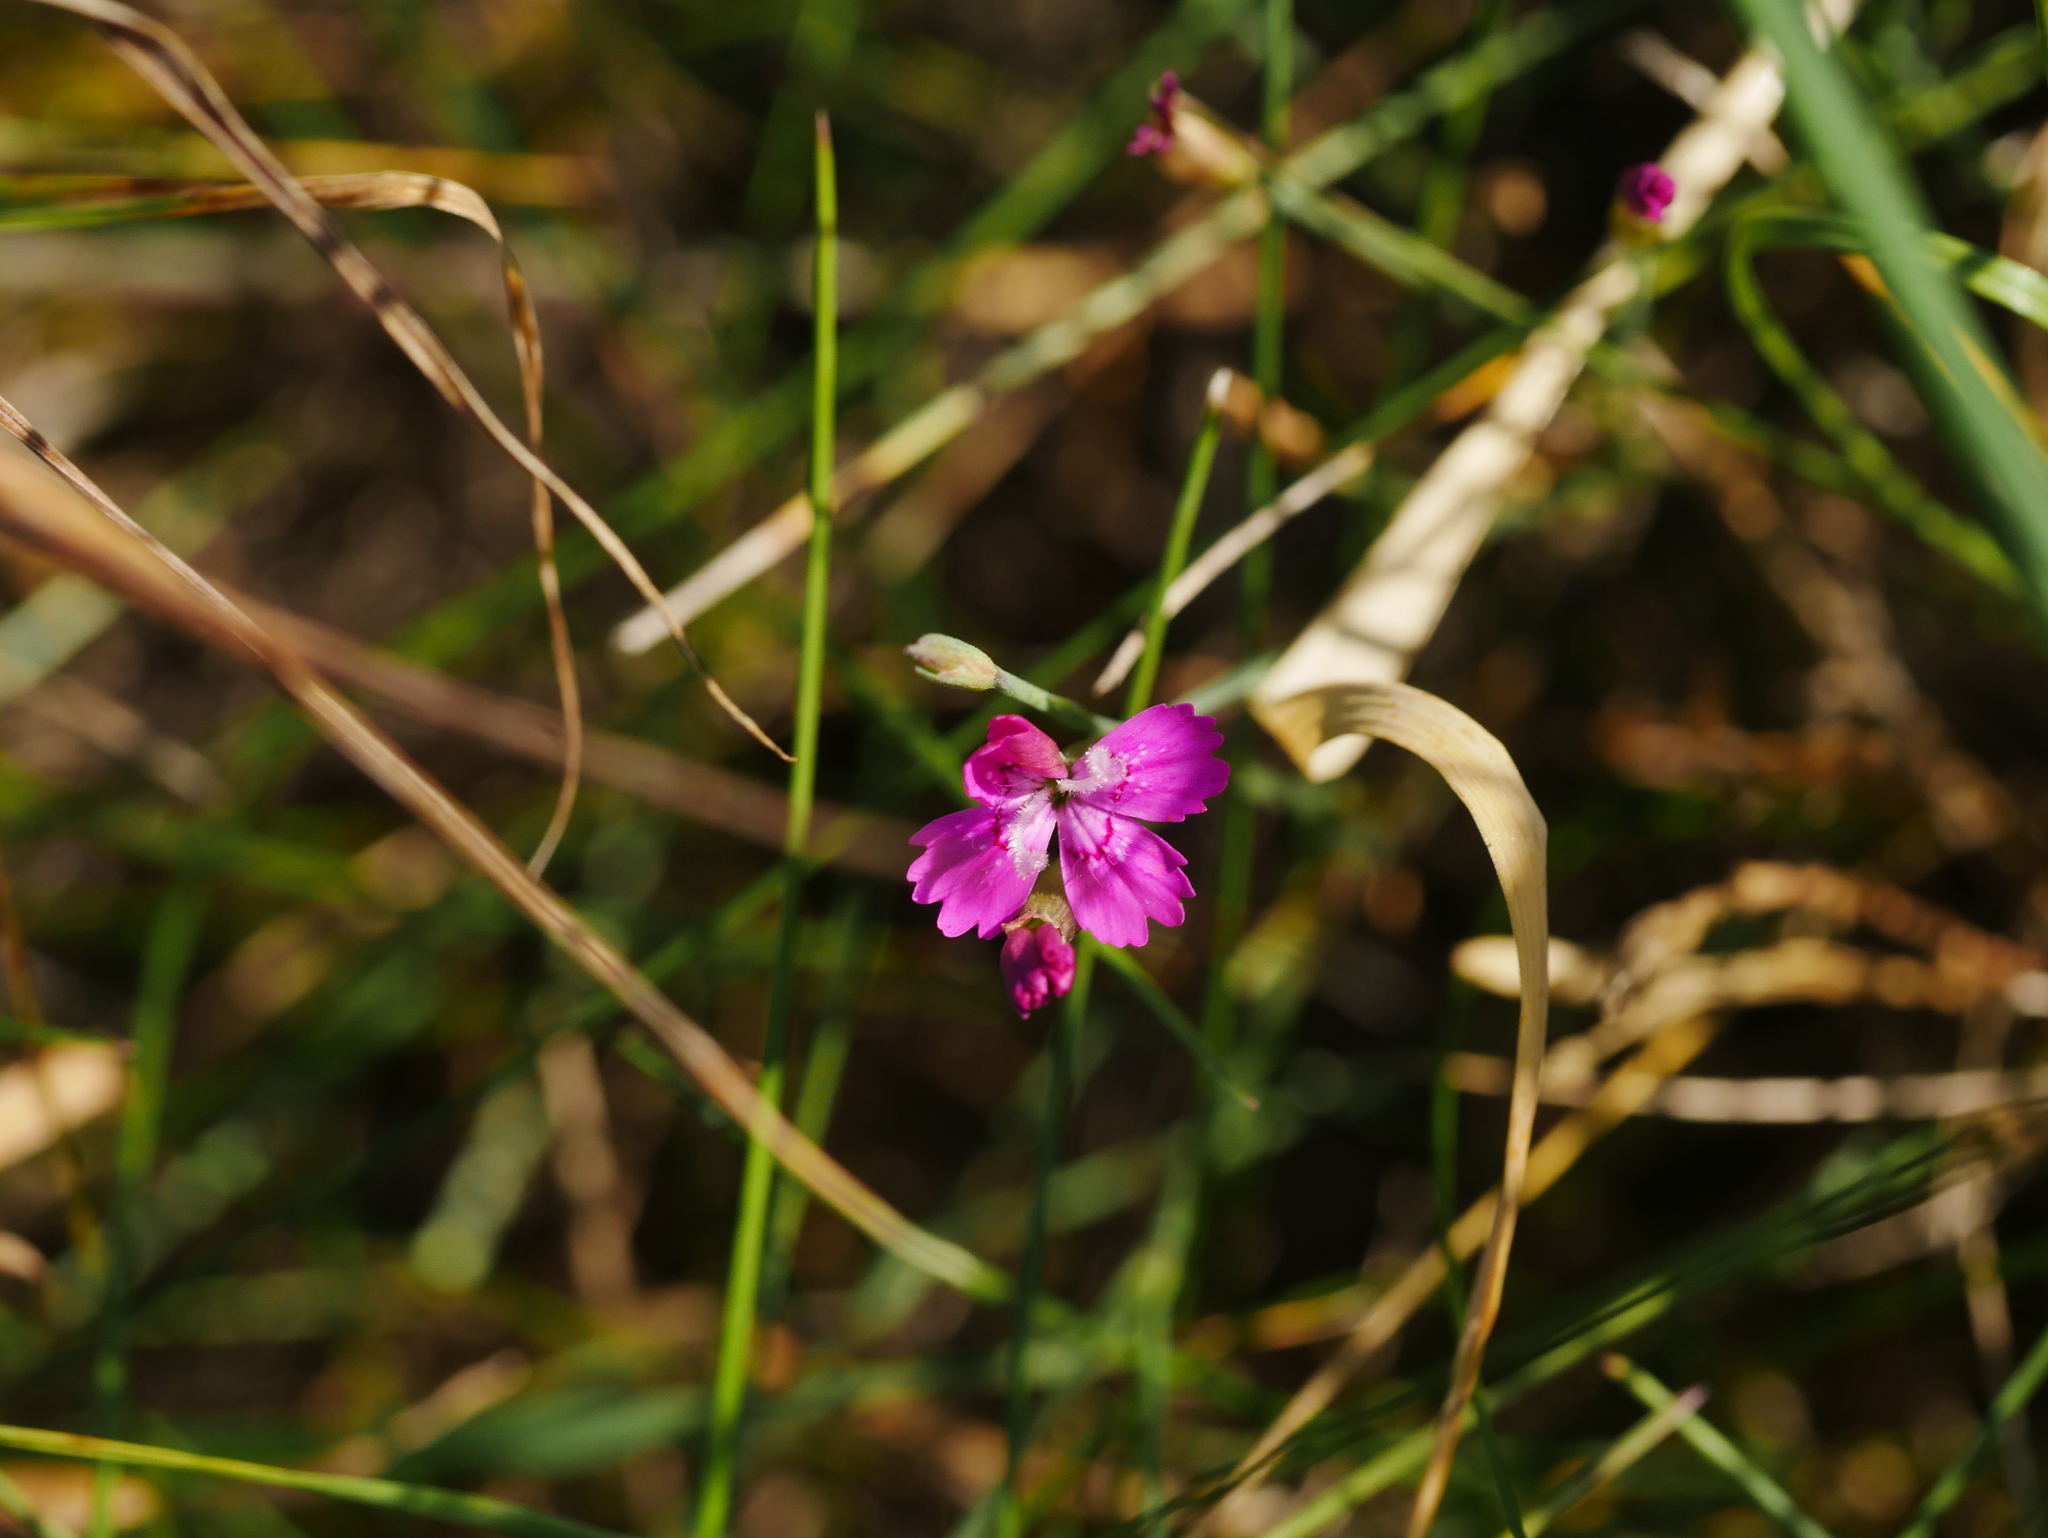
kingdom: Plantae
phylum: Tracheophyta
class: Magnoliopsida
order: Caryophyllales
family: Caryophyllaceae
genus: Dianthus
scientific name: Dianthus deltoides
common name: Maiden pink
